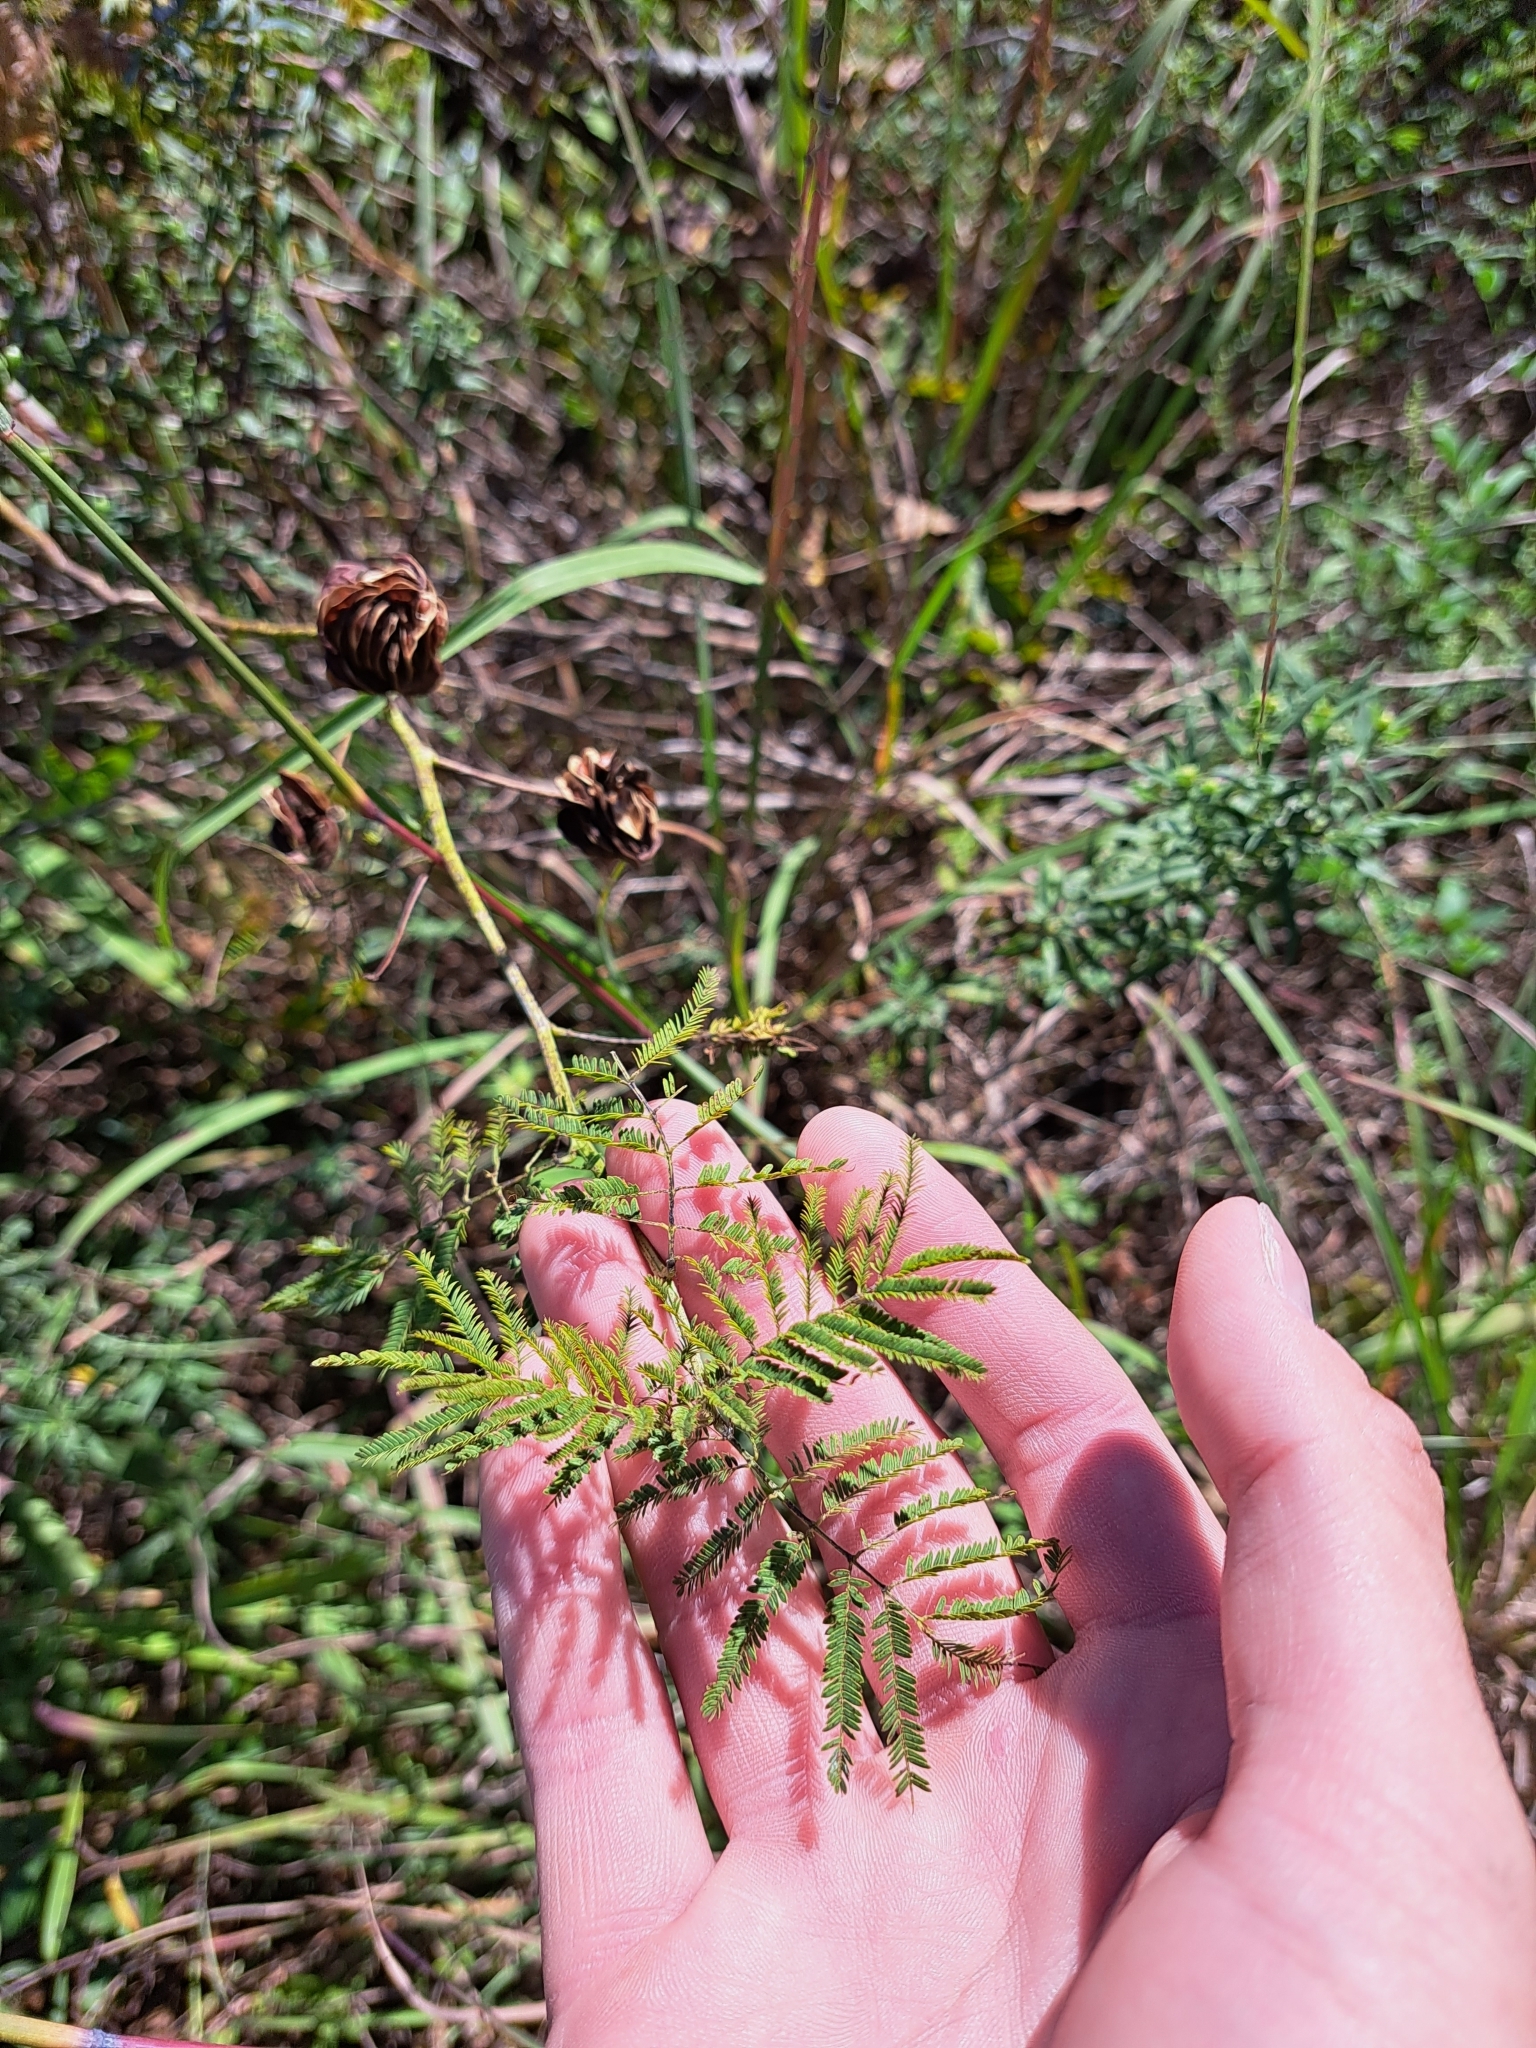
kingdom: Plantae
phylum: Tracheophyta
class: Magnoliopsida
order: Fabales
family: Fabaceae
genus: Desmanthus
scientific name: Desmanthus illinoensis
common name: Illinois bundle-flower
